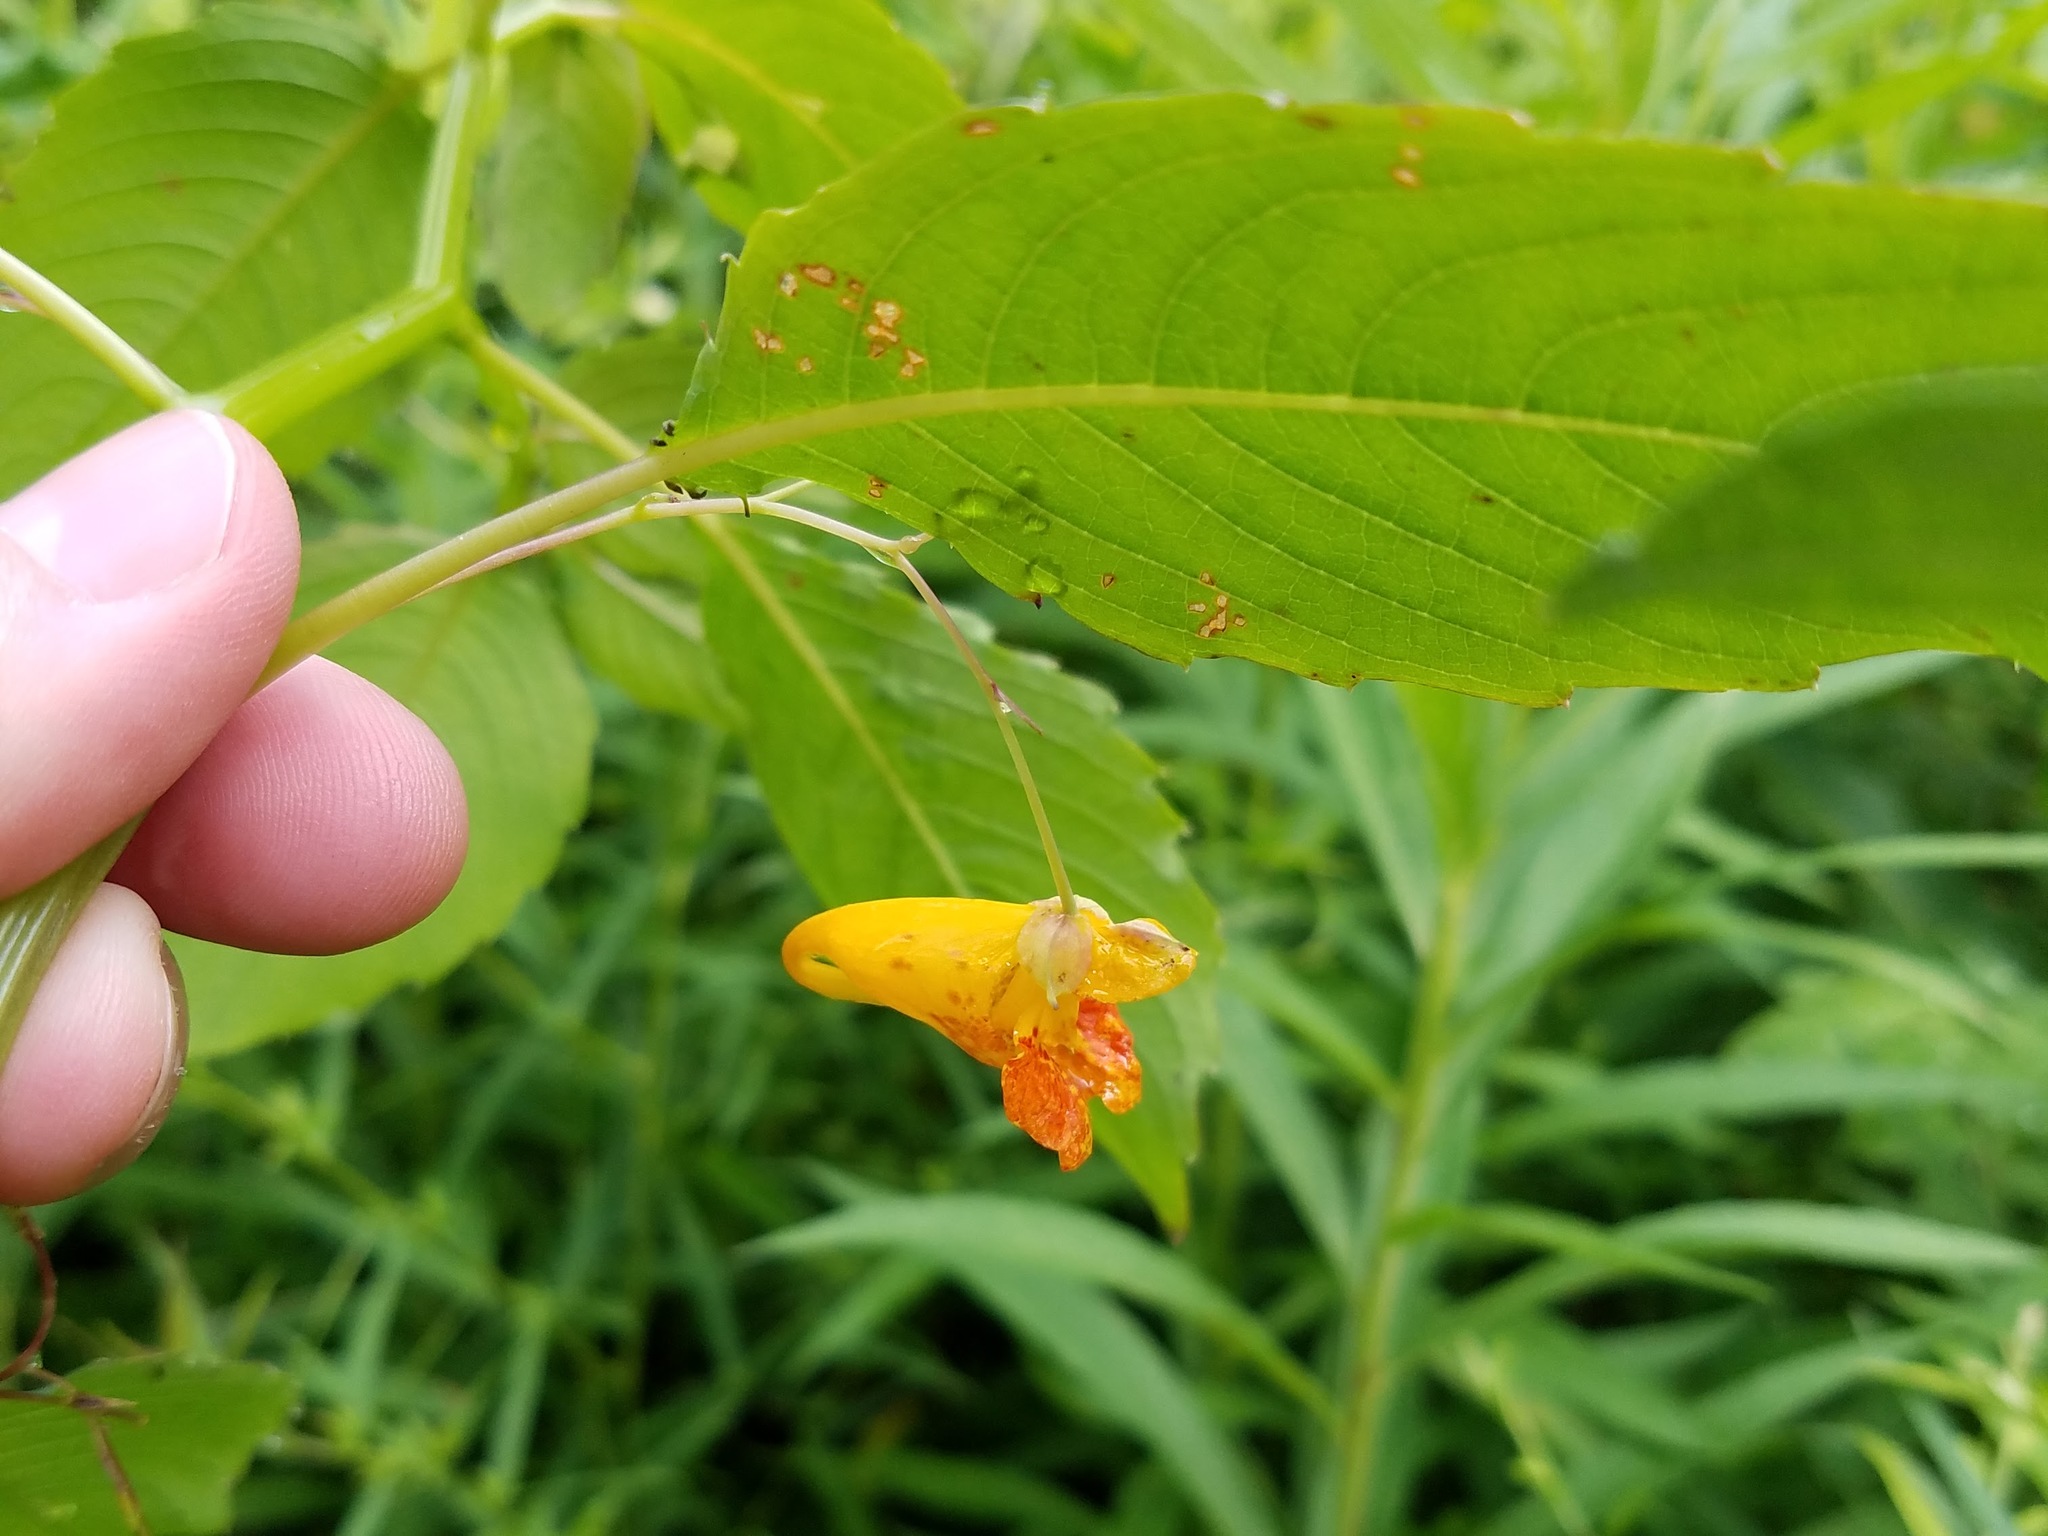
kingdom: Plantae
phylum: Tracheophyta
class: Magnoliopsida
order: Ericales
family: Balsaminaceae
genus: Impatiens
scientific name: Impatiens capensis
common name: Orange balsam
